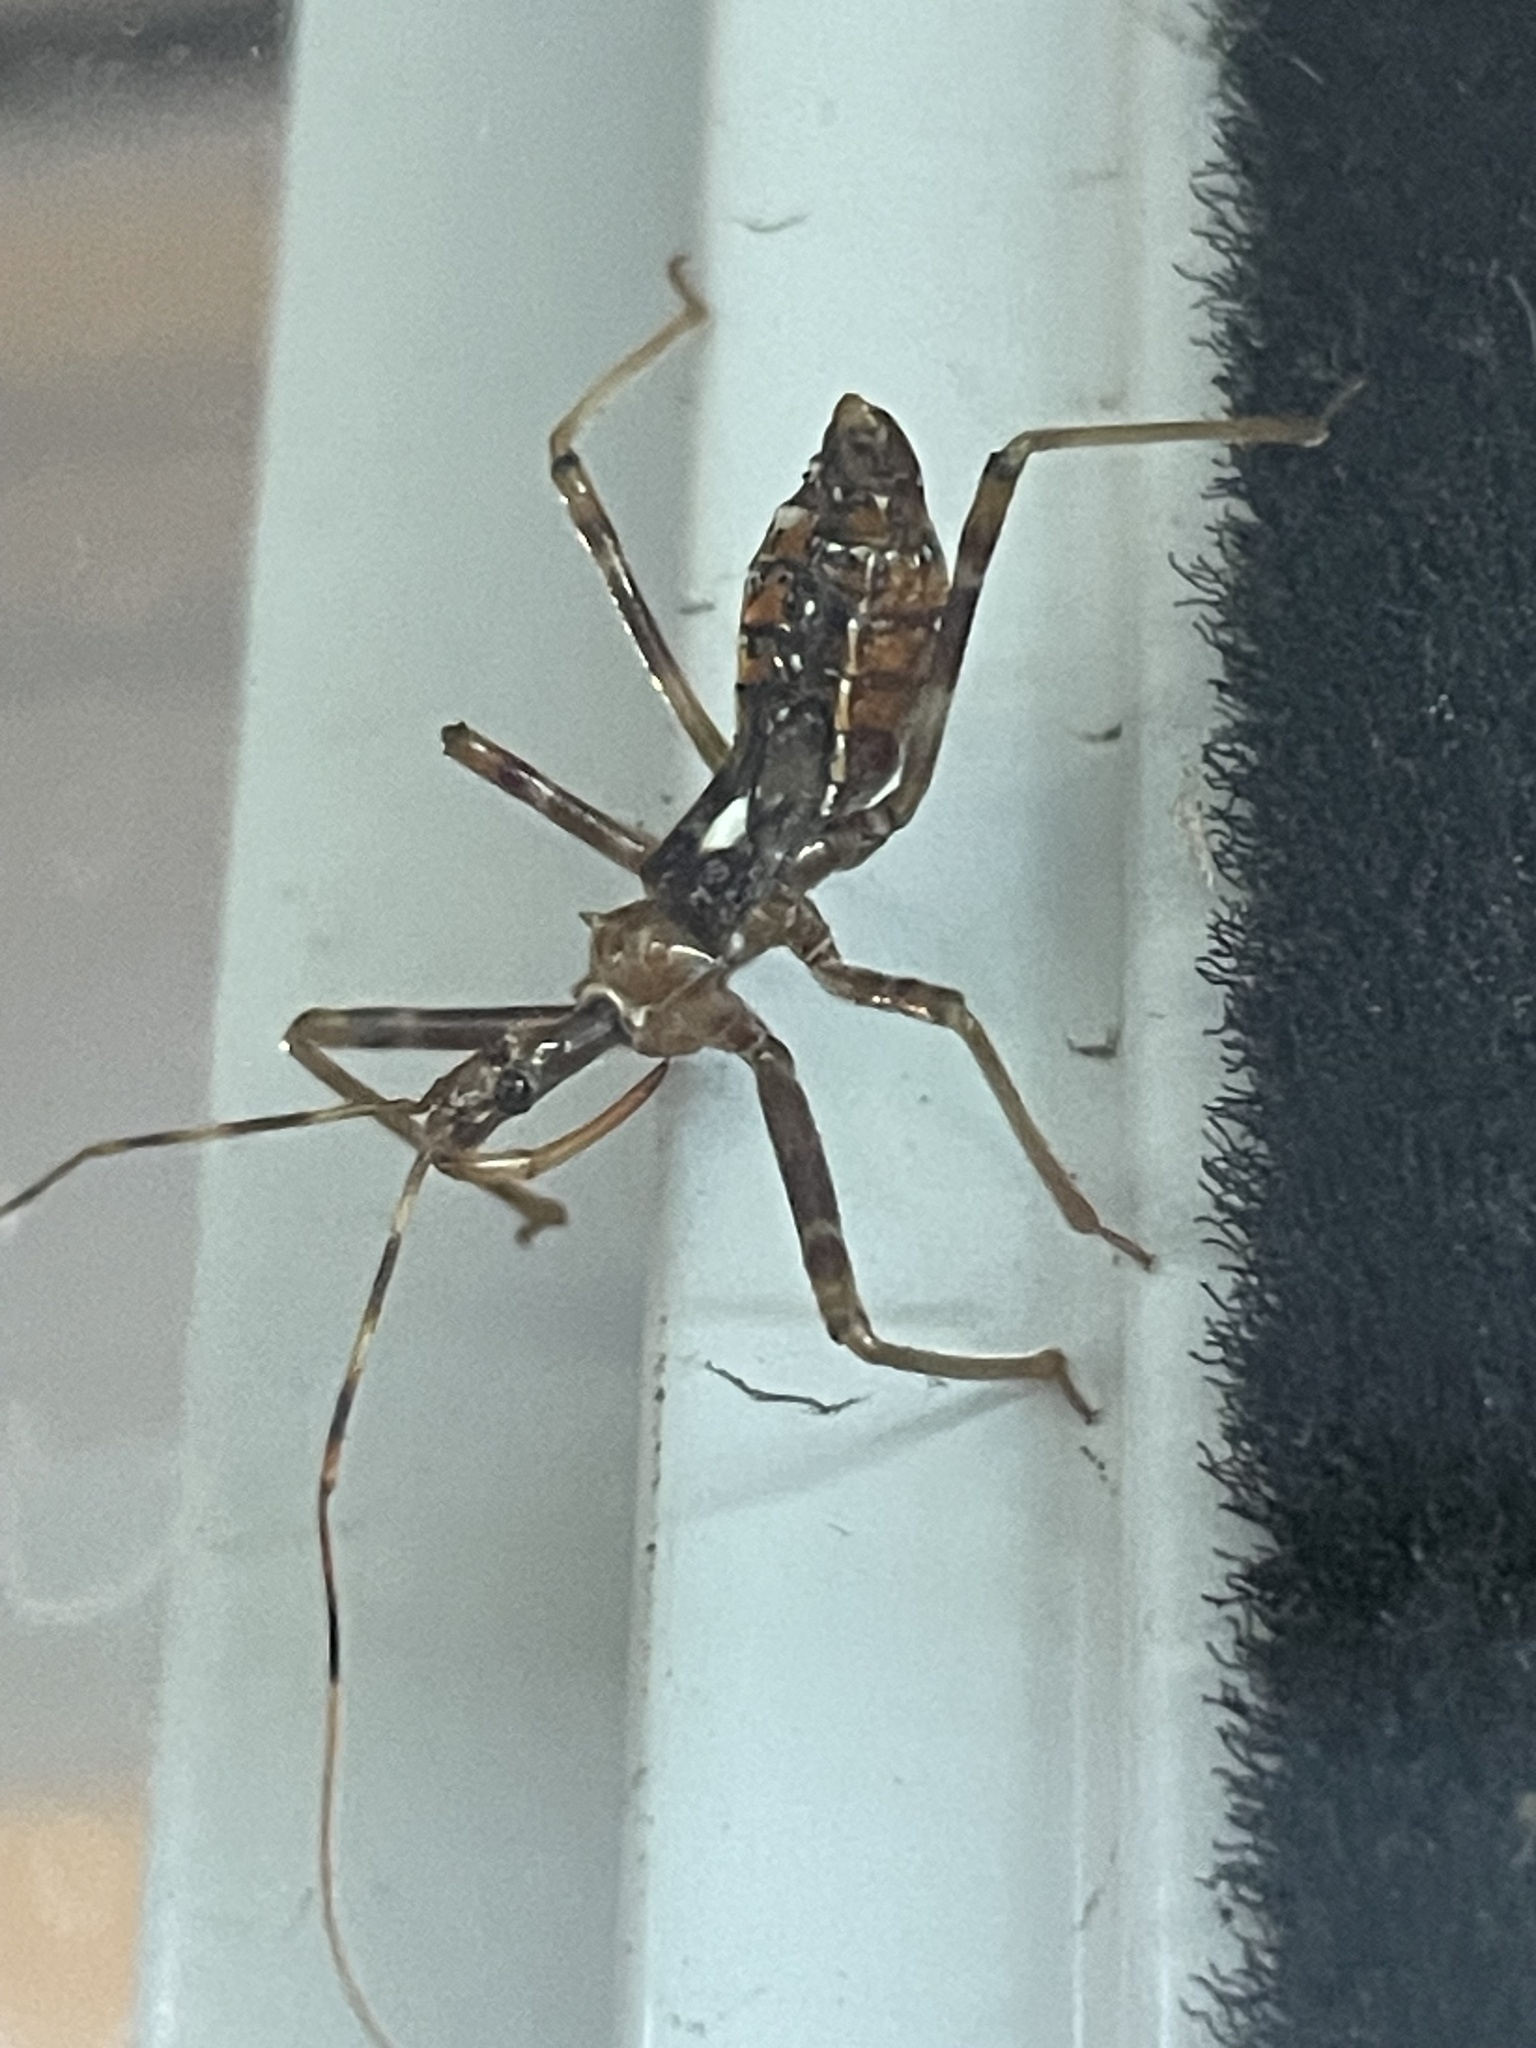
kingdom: Animalia
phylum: Arthropoda
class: Insecta
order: Hemiptera
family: Reduviidae
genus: Pristhesancus
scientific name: Pristhesancus plagipennis
